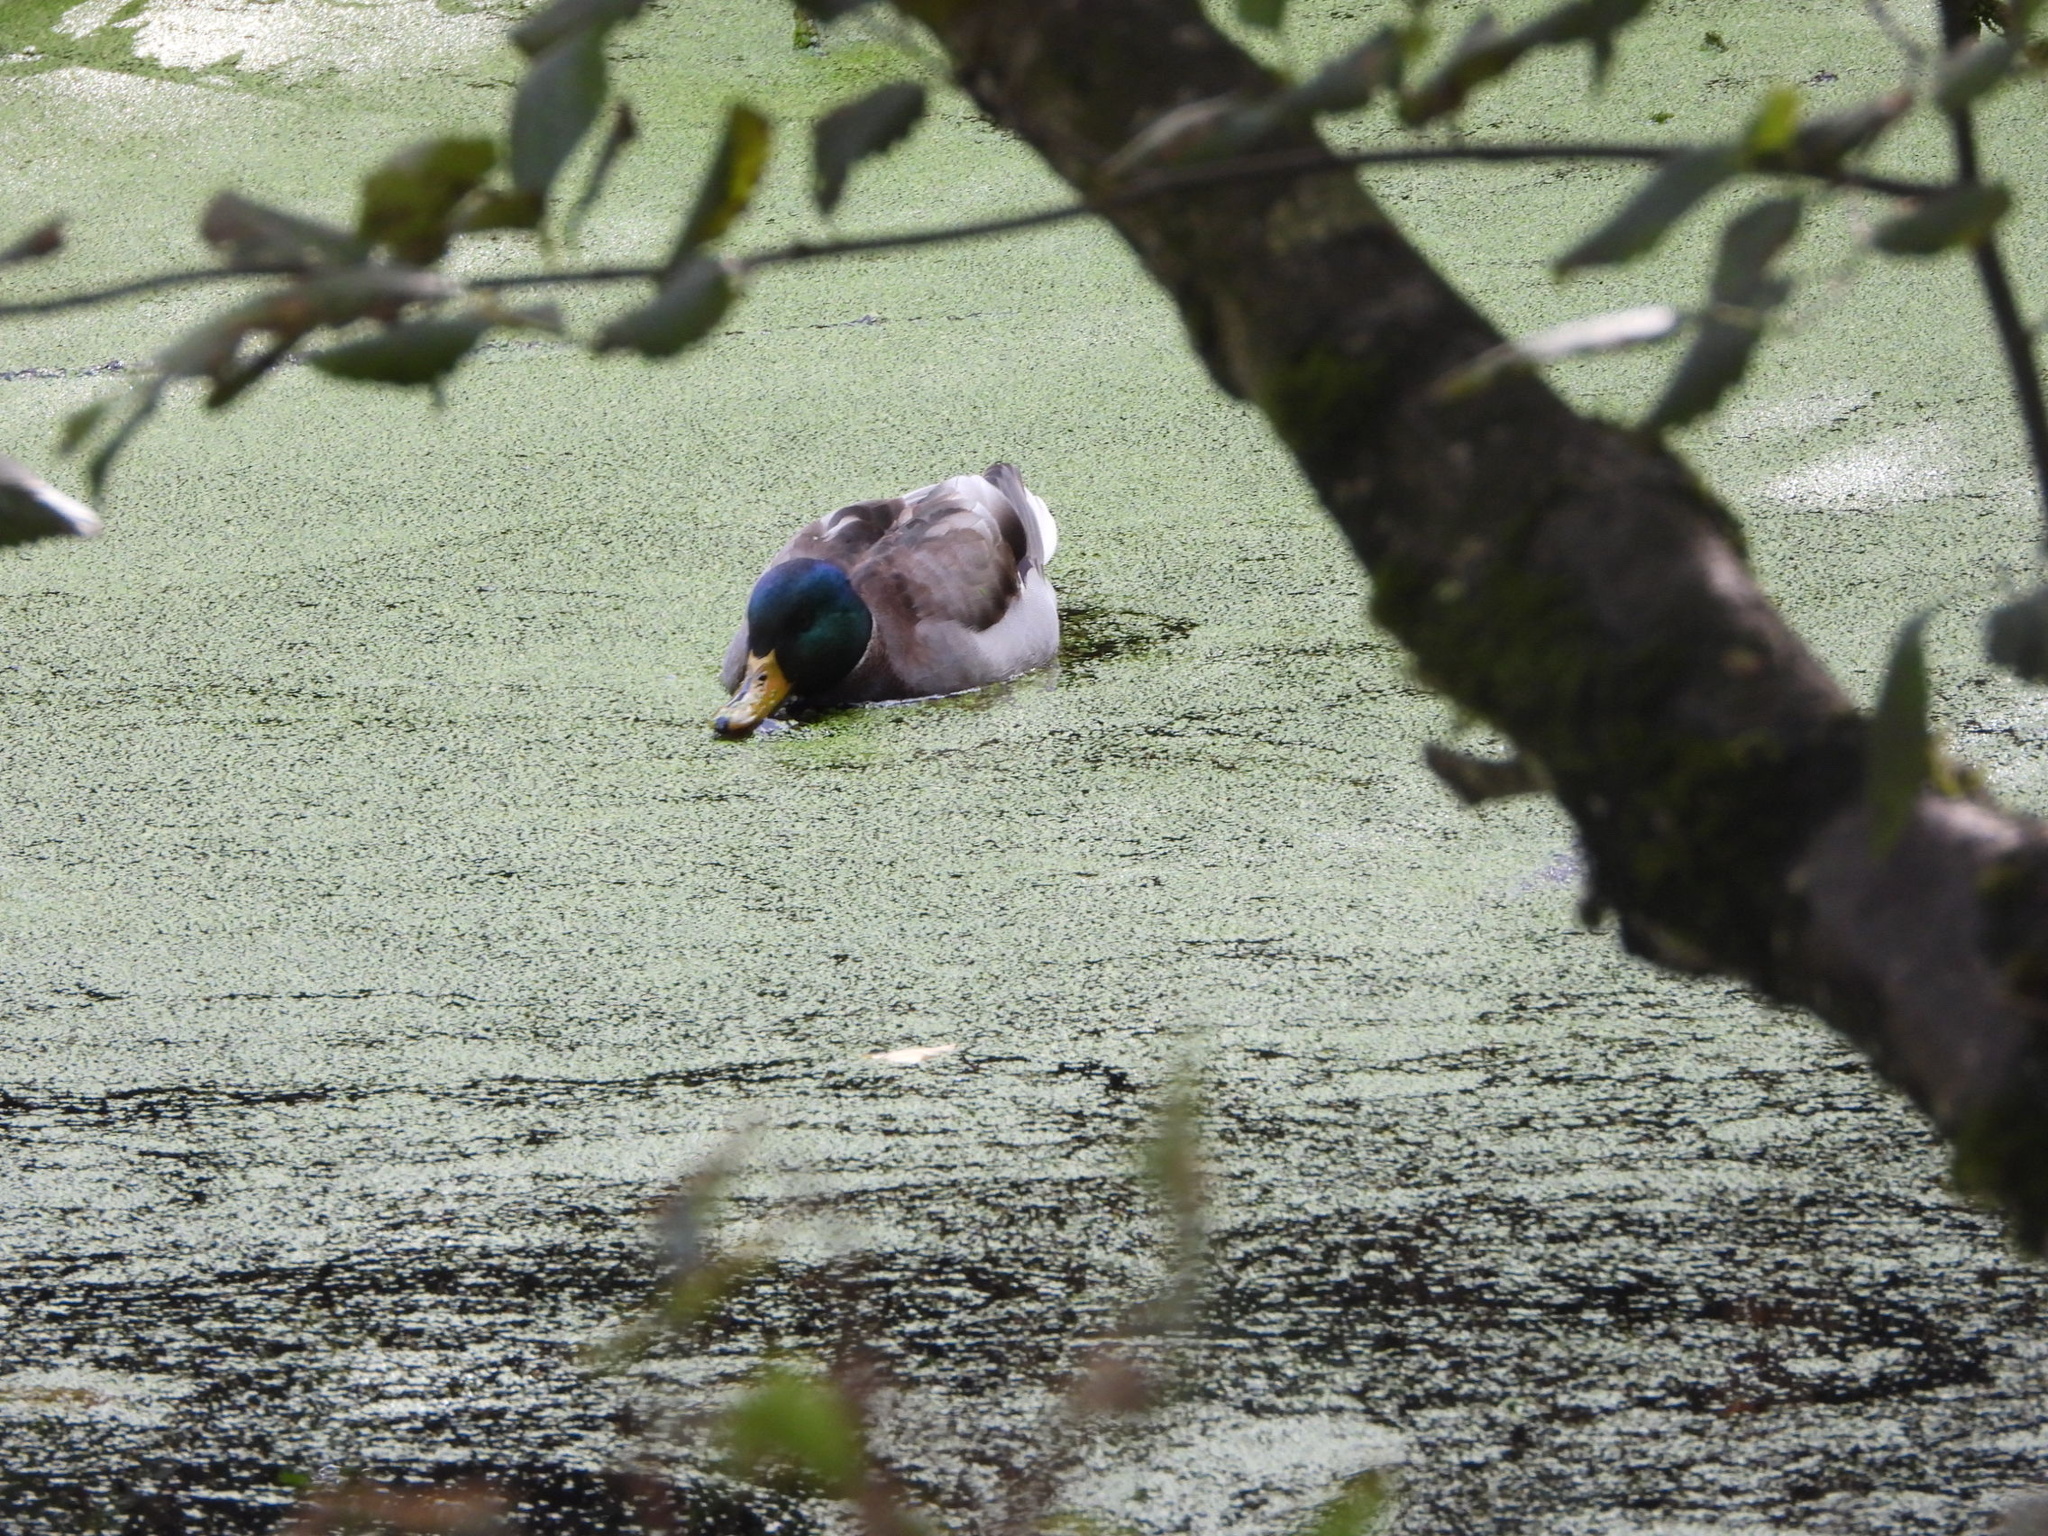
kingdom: Animalia
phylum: Chordata
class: Aves
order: Anseriformes
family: Anatidae
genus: Anas
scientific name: Anas platyrhynchos
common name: Mallard
